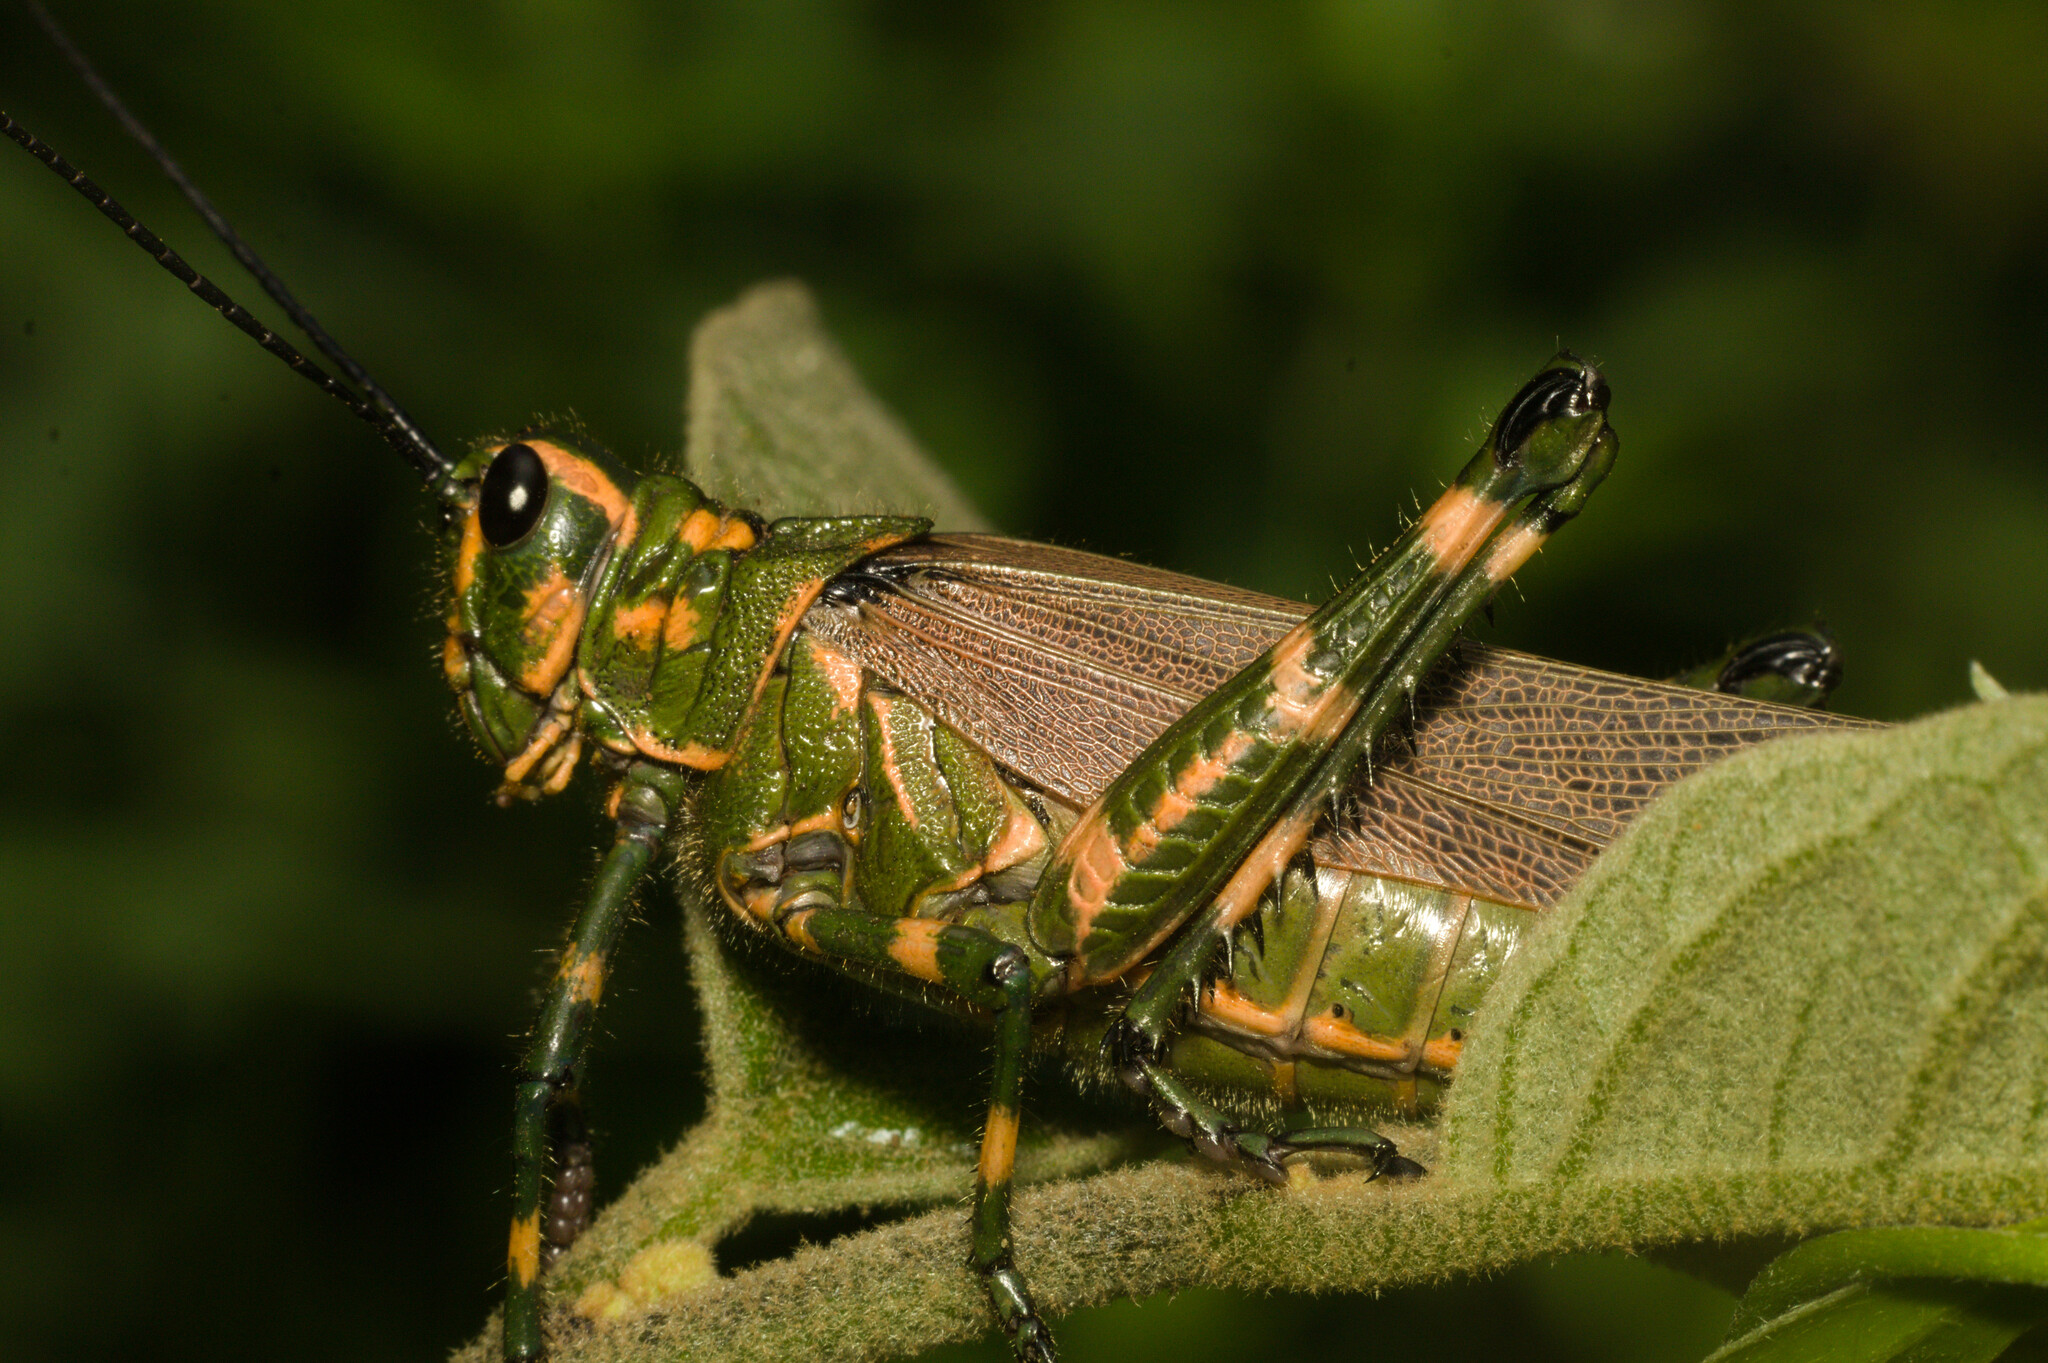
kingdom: Animalia
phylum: Arthropoda
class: Insecta
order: Orthoptera
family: Romaleidae
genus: Chromacris
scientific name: Chromacris speciosa
